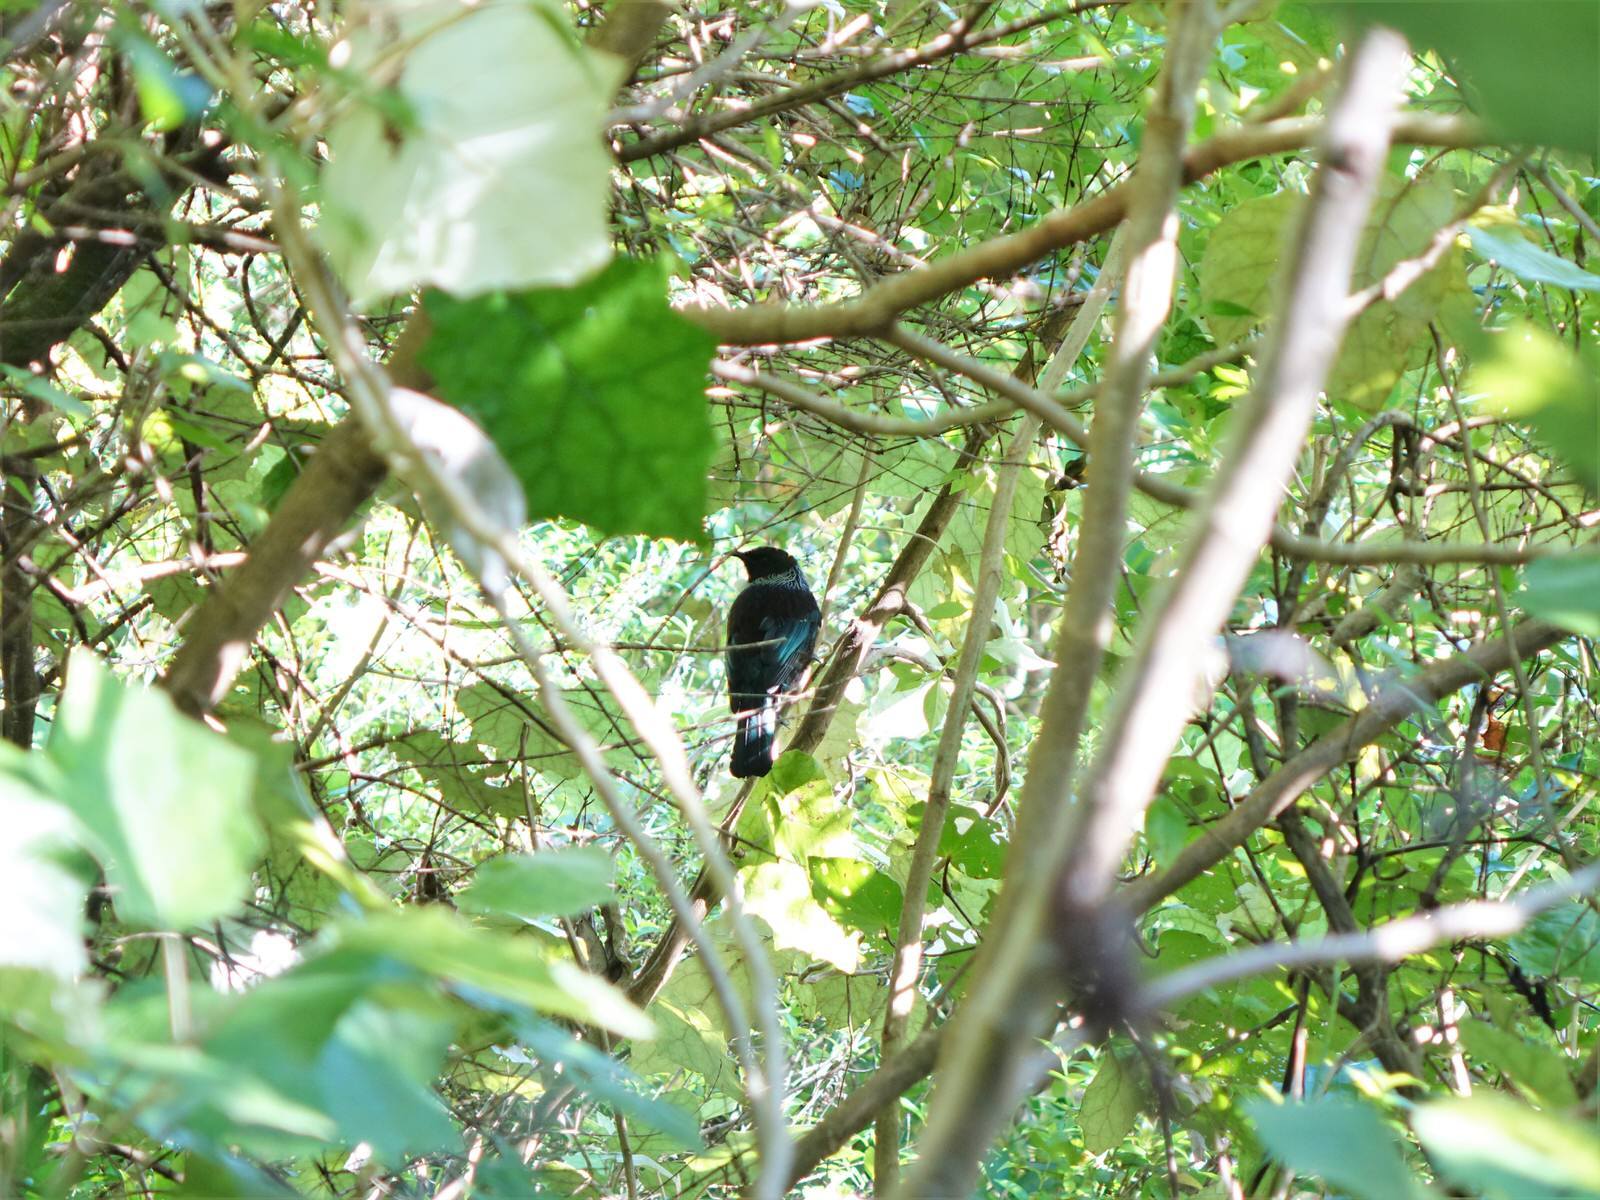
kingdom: Animalia
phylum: Chordata
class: Aves
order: Passeriformes
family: Meliphagidae
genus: Prosthemadera
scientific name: Prosthemadera novaeseelandiae
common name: Tui
